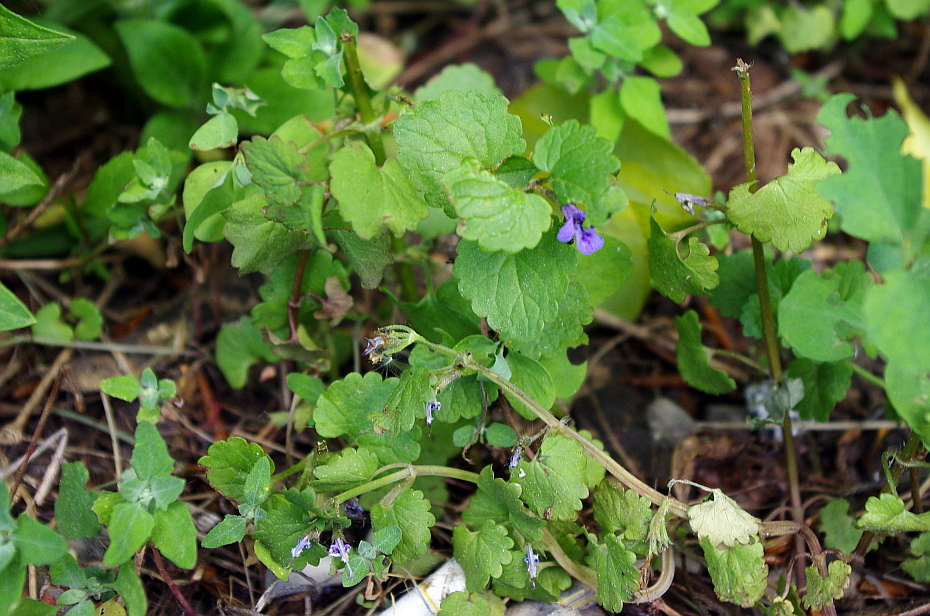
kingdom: Plantae
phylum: Tracheophyta
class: Magnoliopsida
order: Lamiales
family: Lamiaceae
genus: Glechoma
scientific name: Glechoma hederacea
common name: Ground ivy
